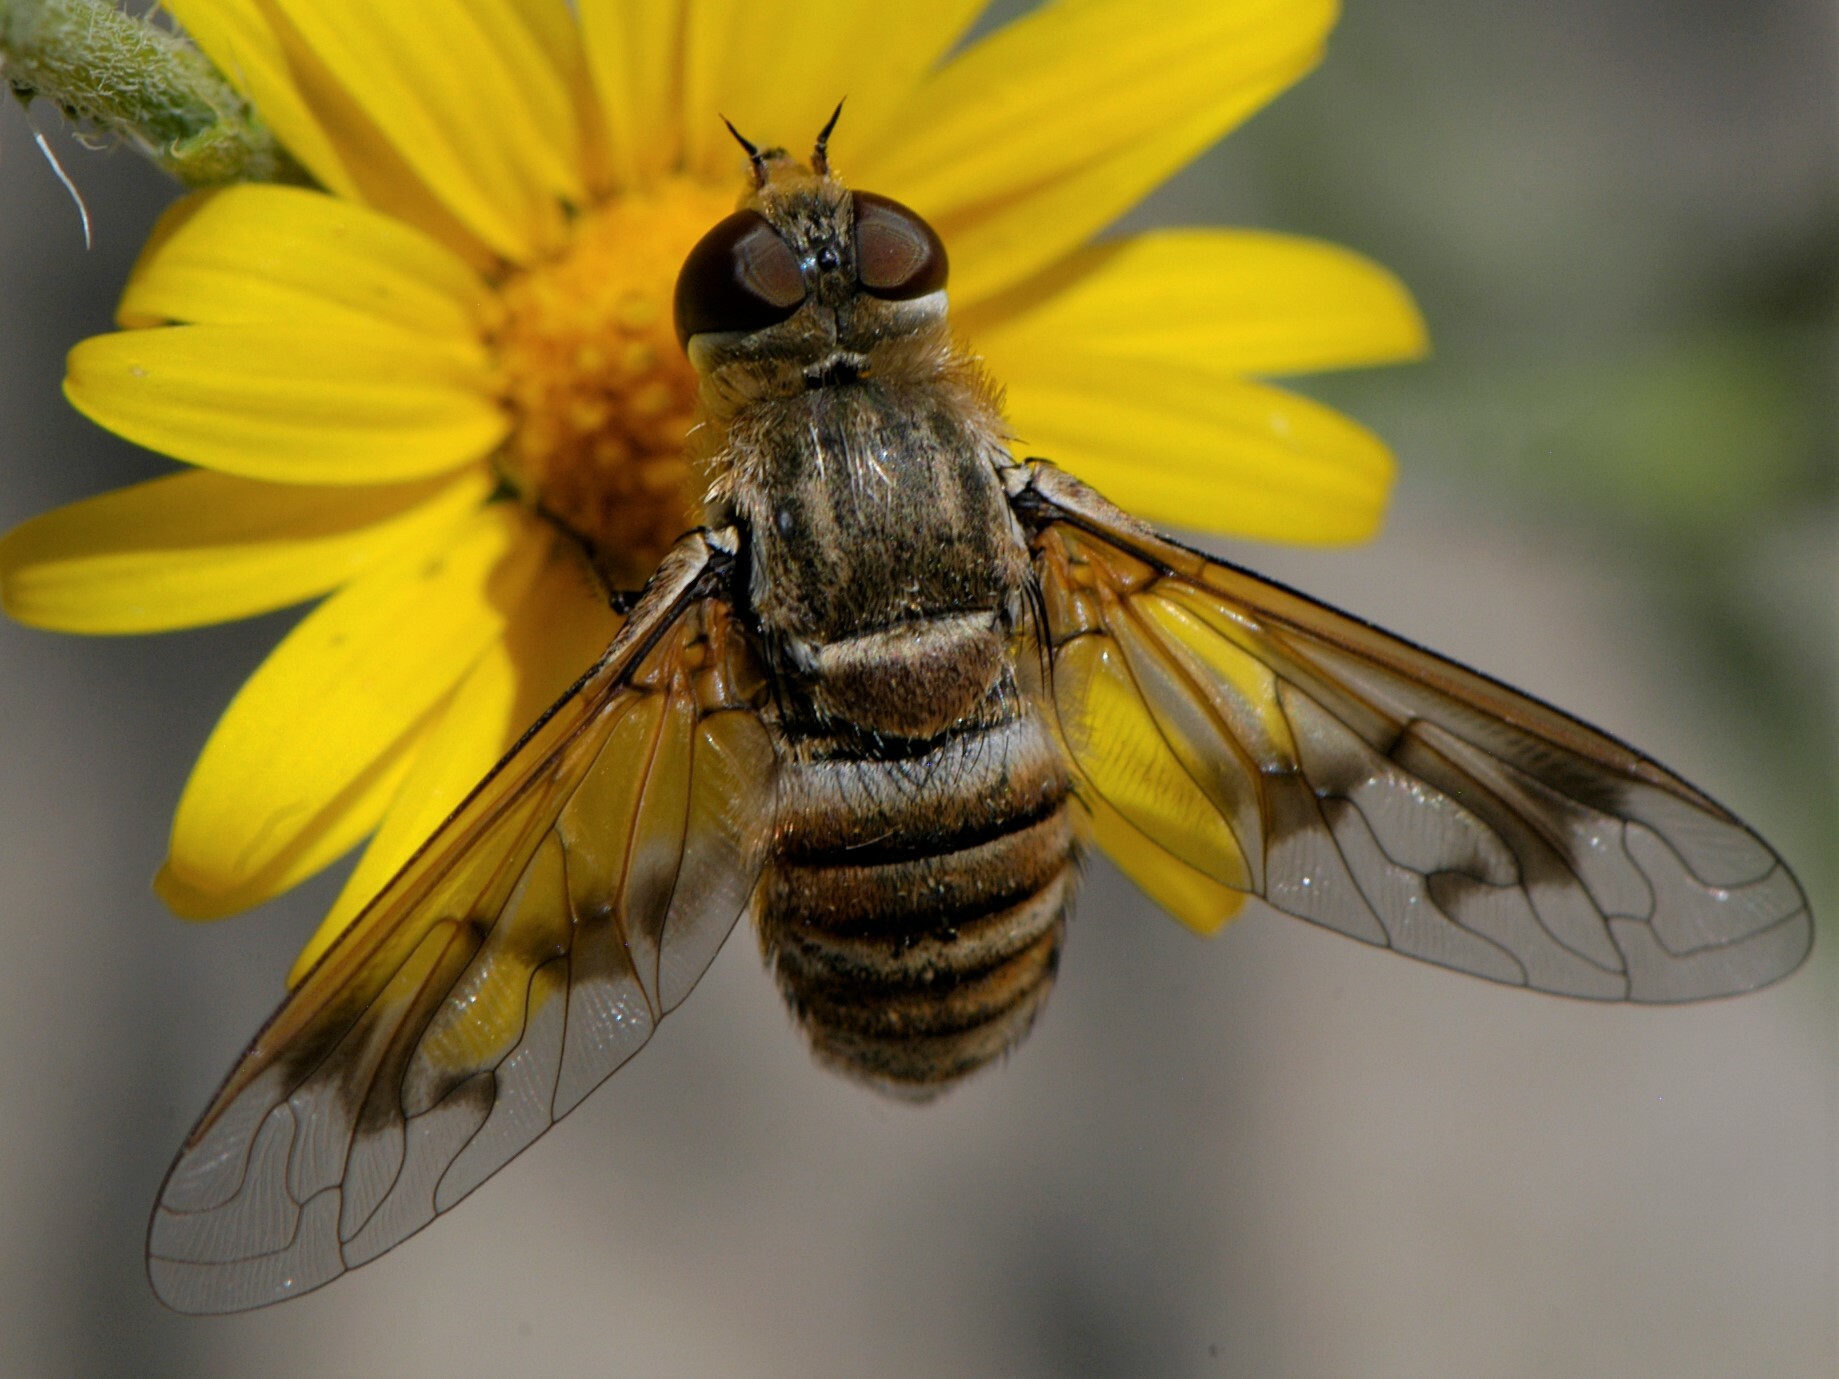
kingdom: Animalia
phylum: Arthropoda
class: Insecta
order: Diptera
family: Bombyliidae
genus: Exoprosopa
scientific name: Exoprosopa butleri
